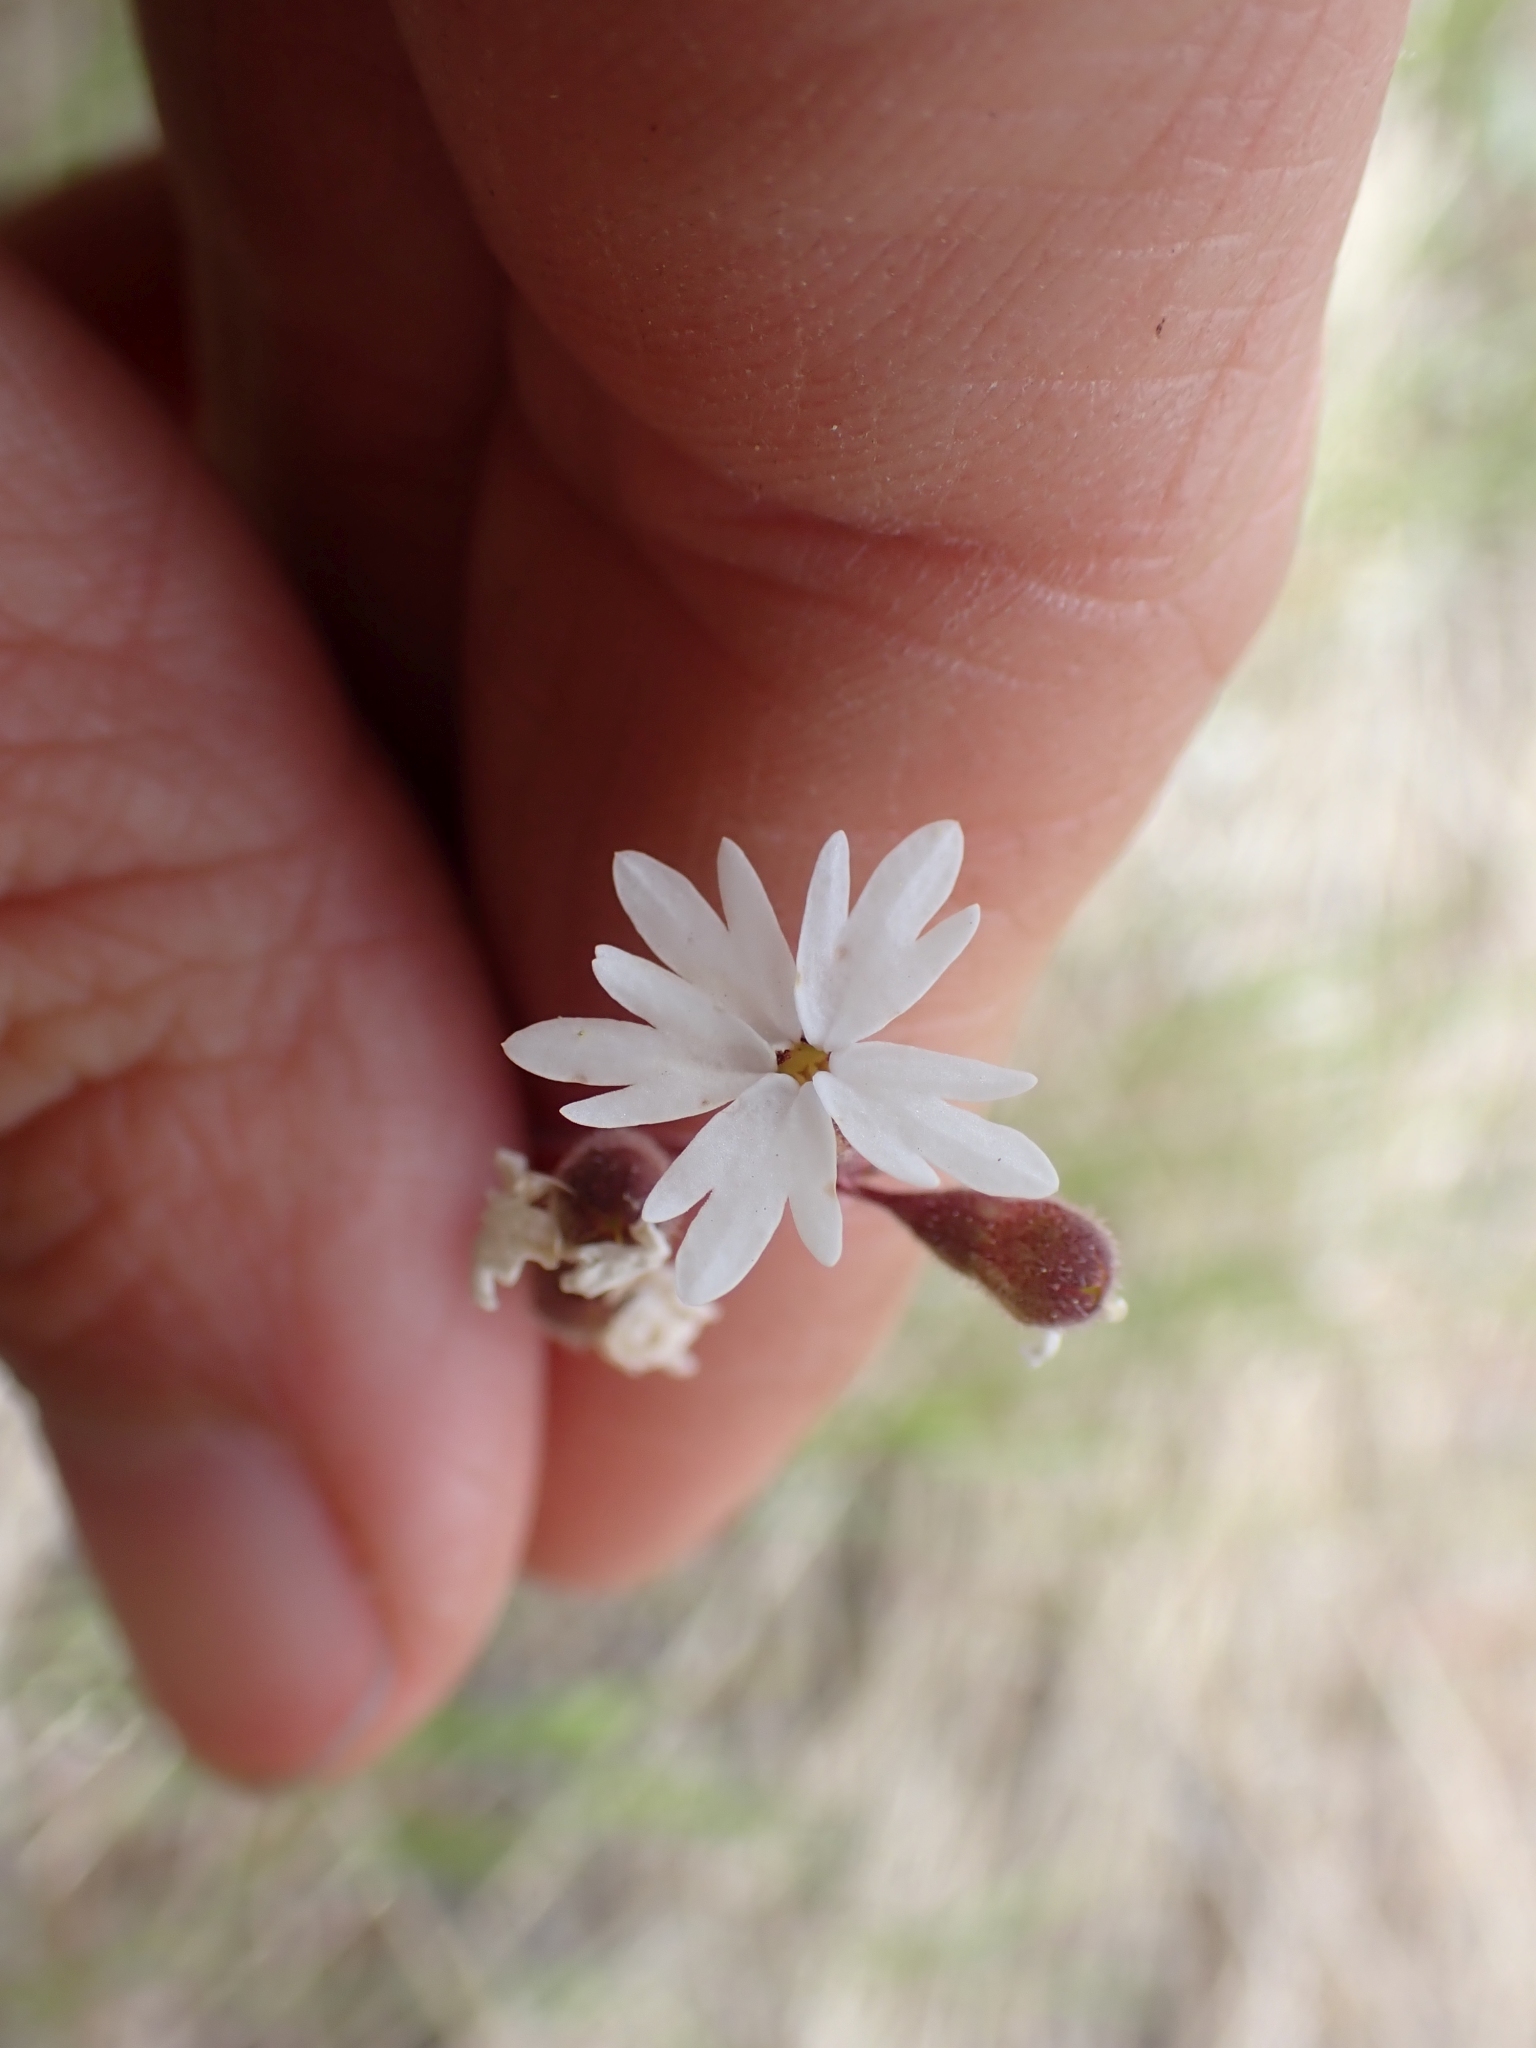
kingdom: Plantae
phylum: Tracheophyta
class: Magnoliopsida
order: Saxifragales
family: Saxifragaceae
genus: Lithophragma
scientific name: Lithophragma parviflorum
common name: Small-flowered fringe-cup
